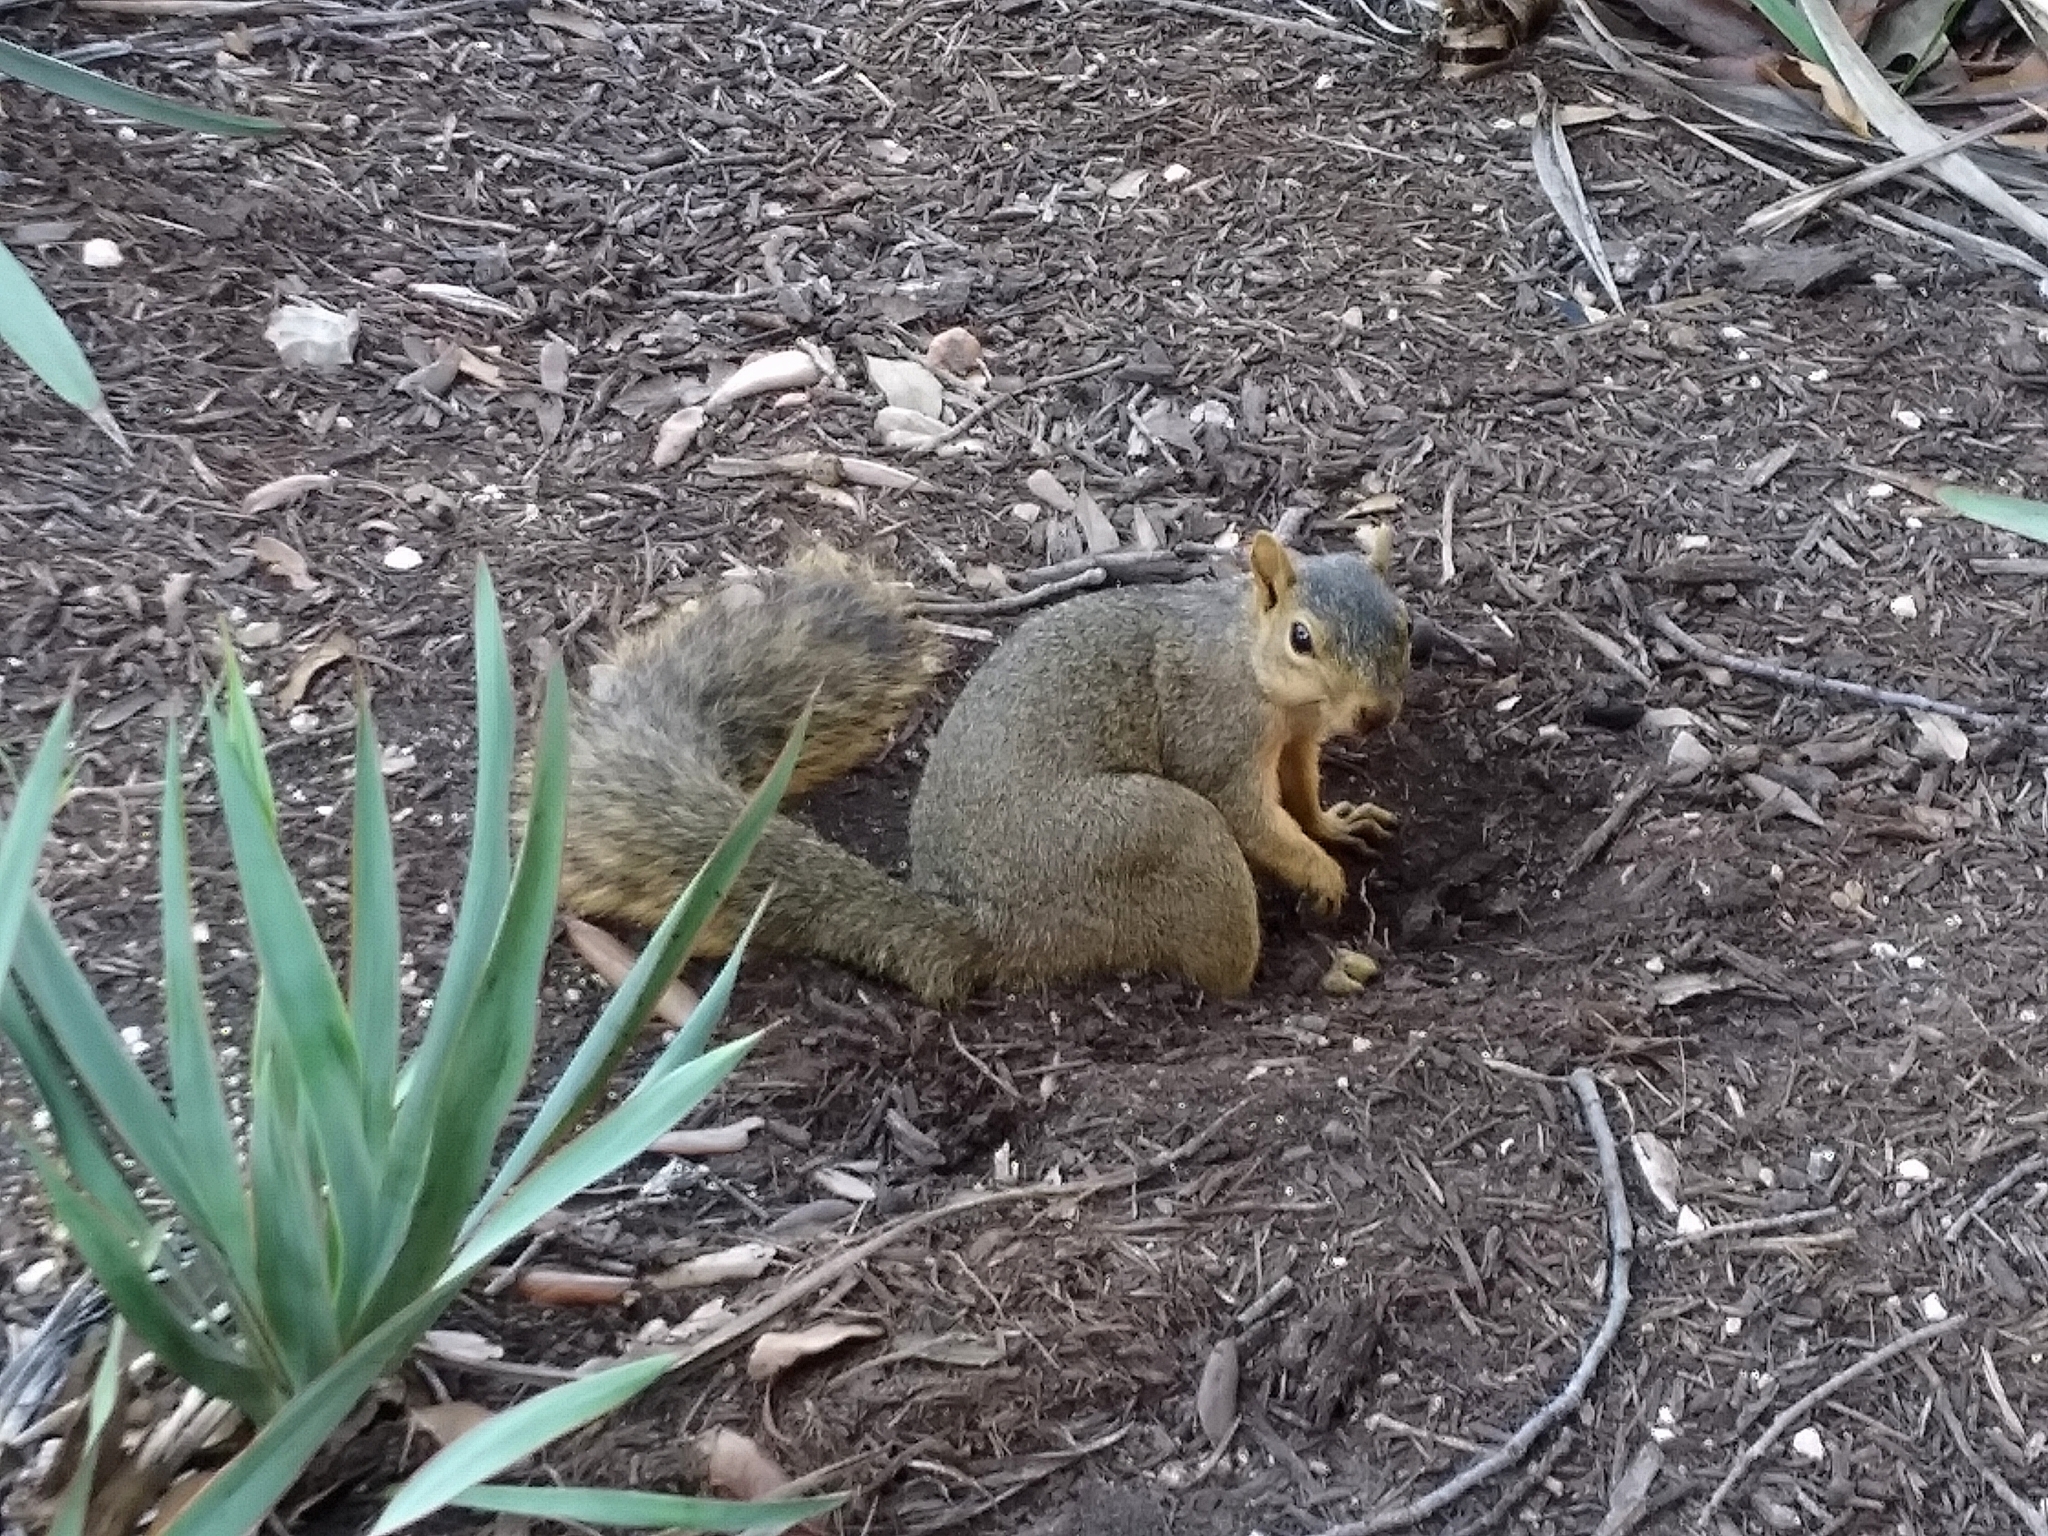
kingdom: Animalia
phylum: Chordata
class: Mammalia
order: Rodentia
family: Sciuridae
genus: Sciurus
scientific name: Sciurus niger
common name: Fox squirrel
